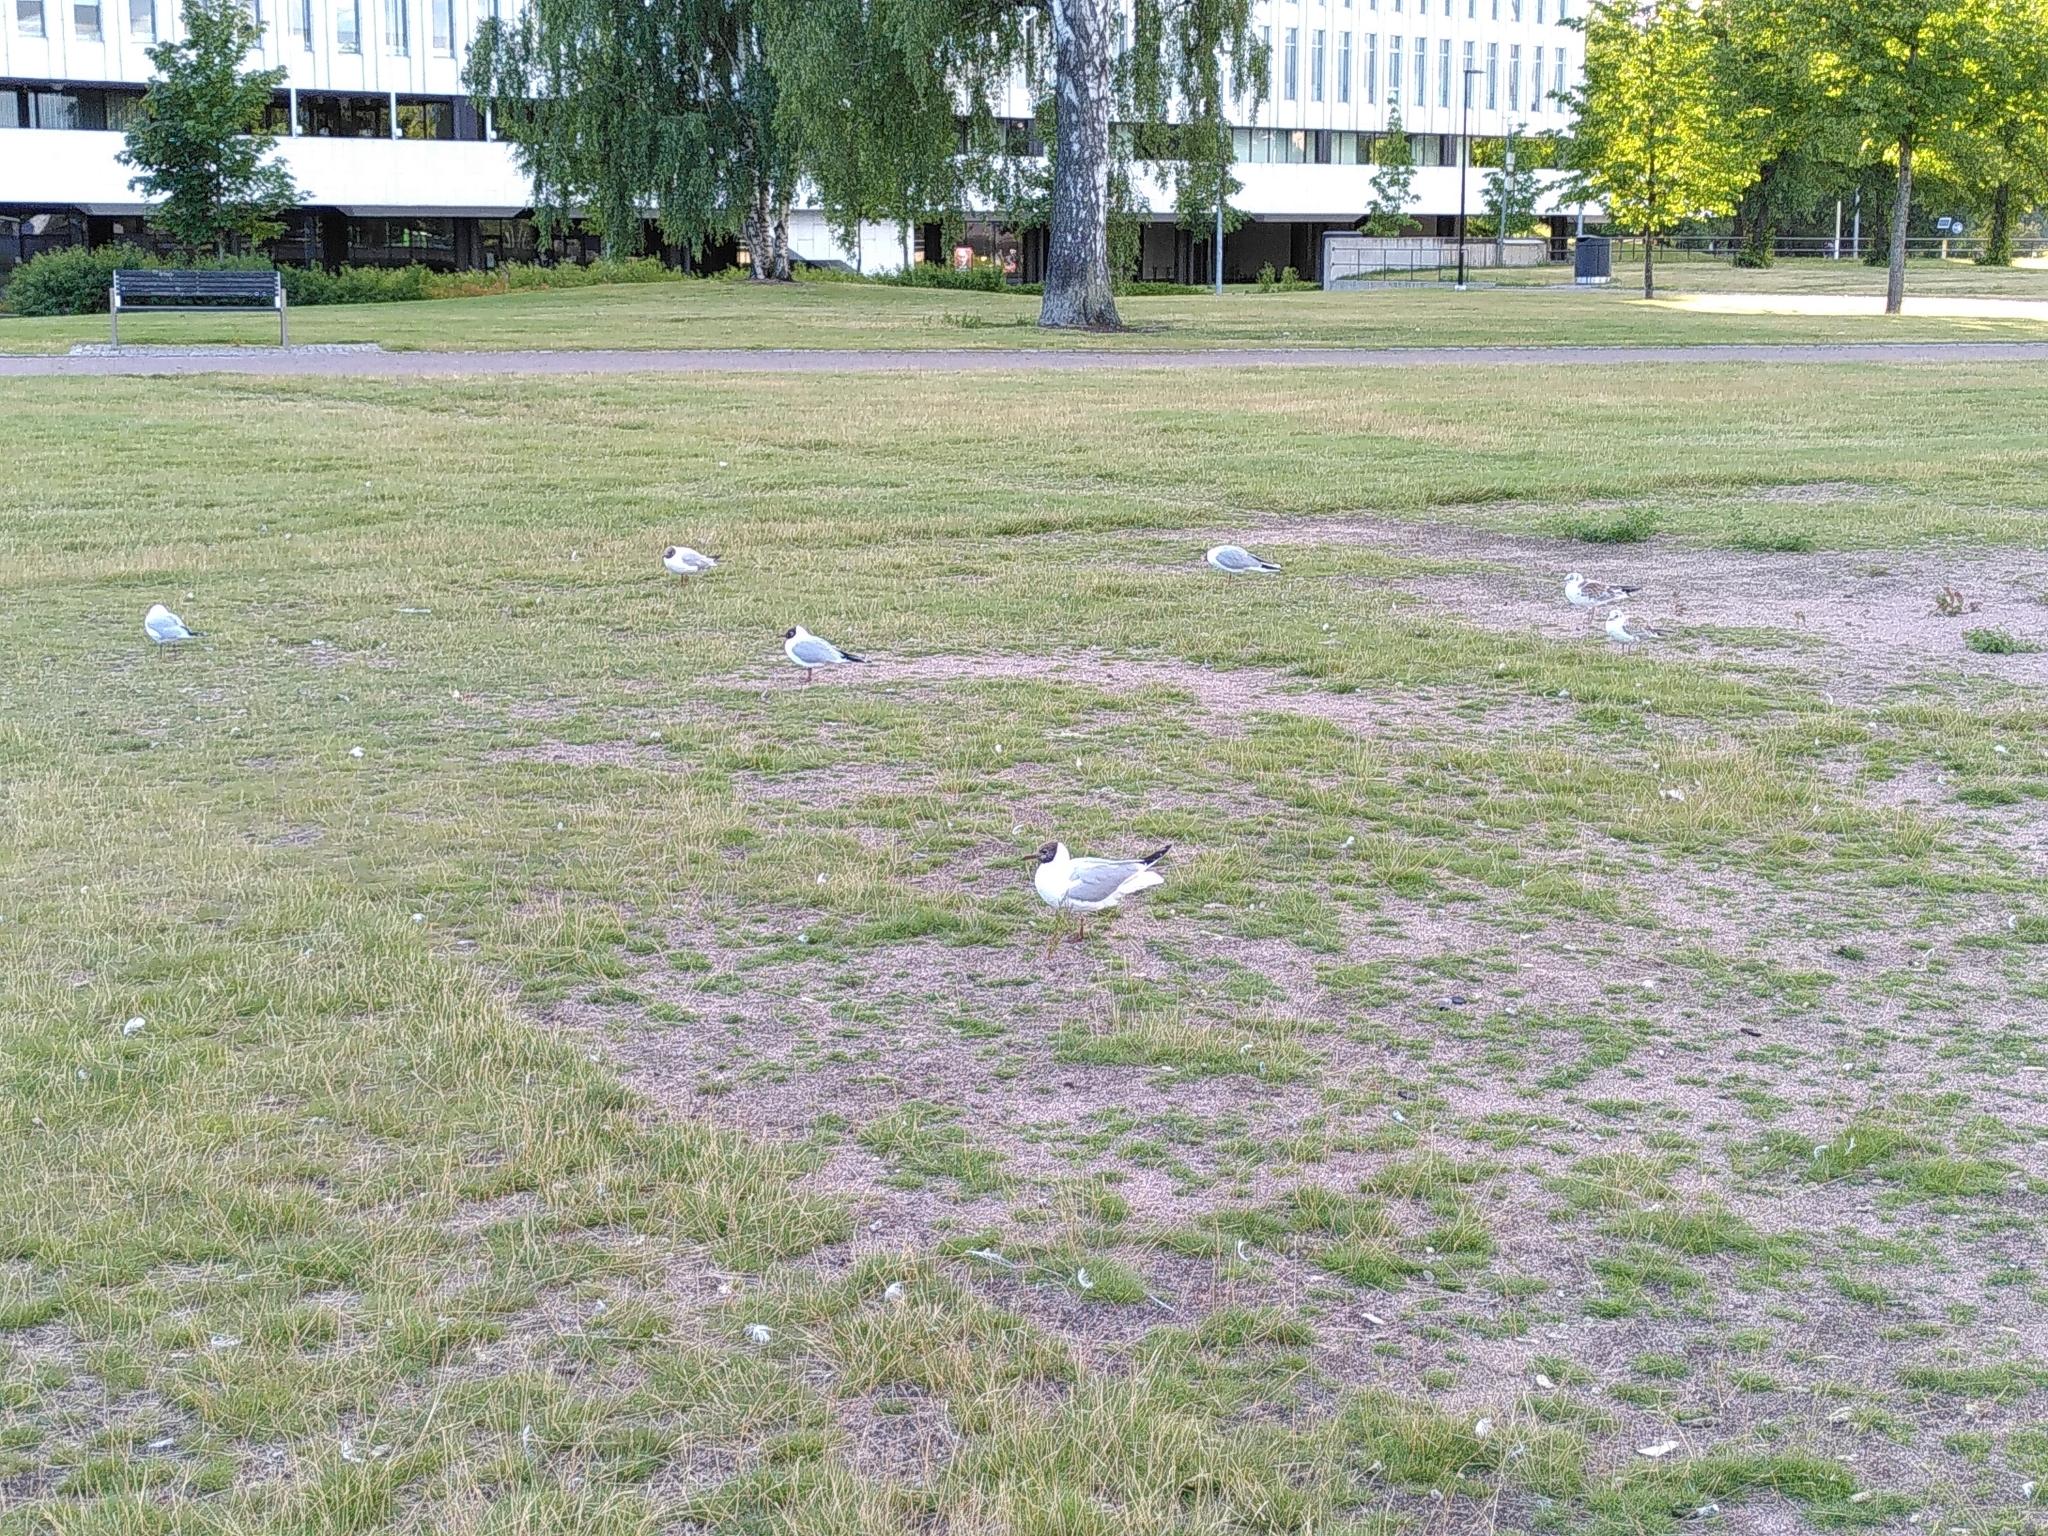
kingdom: Animalia
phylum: Chordata
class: Aves
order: Charadriiformes
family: Laridae
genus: Chroicocephalus
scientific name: Chroicocephalus ridibundus
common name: Black-headed gull
